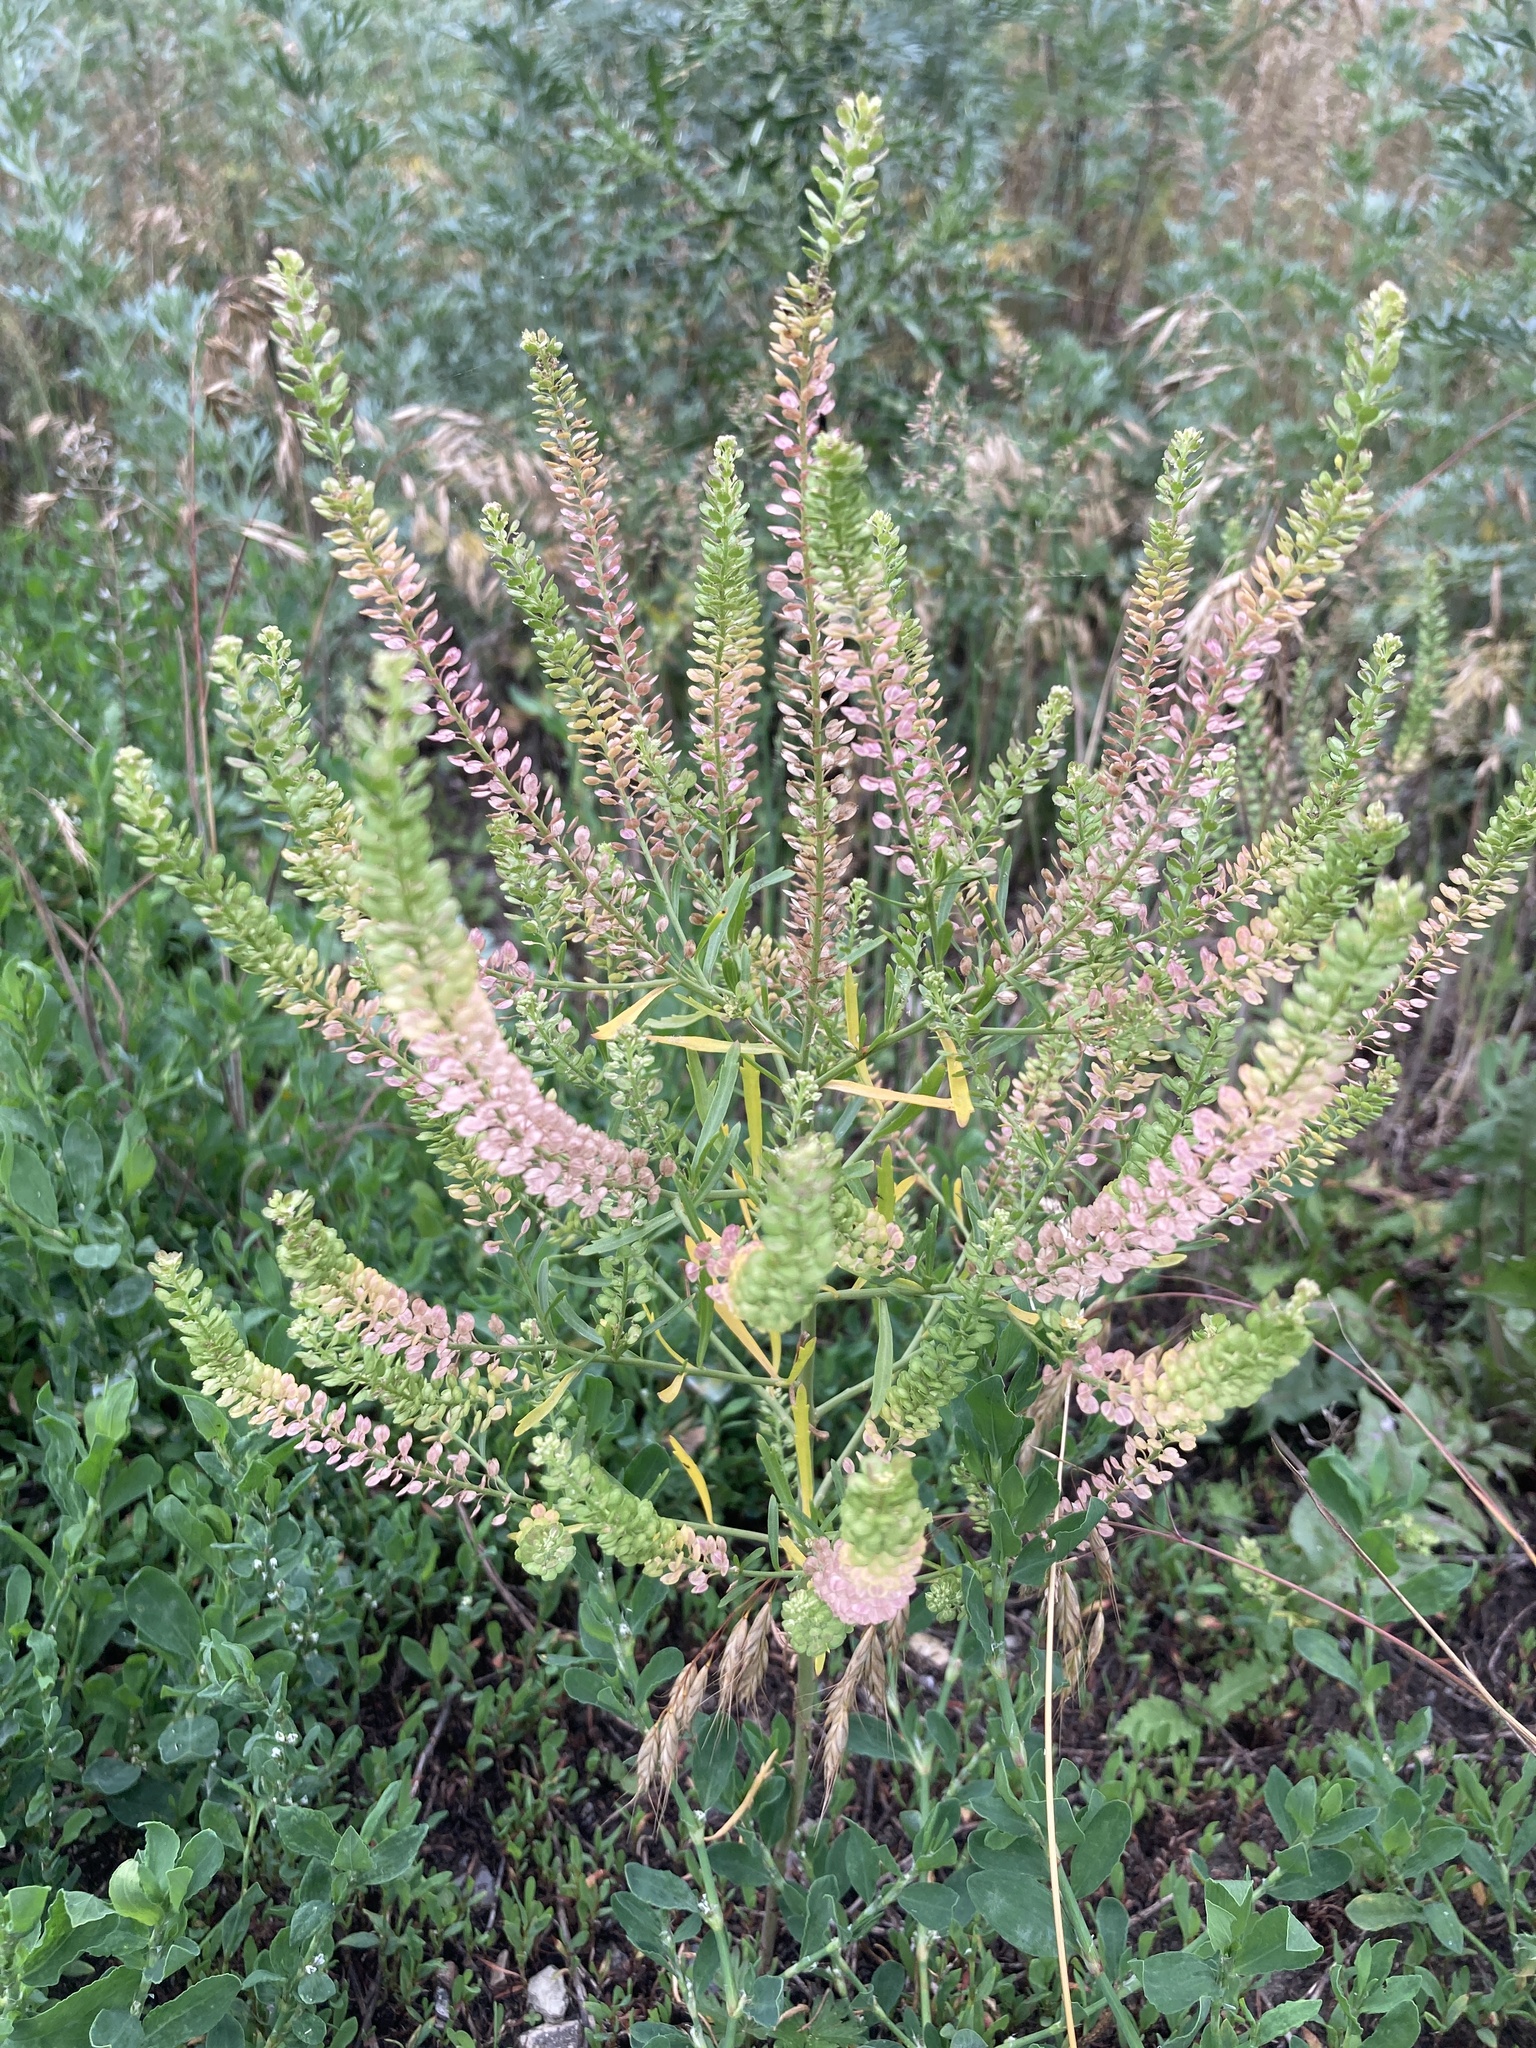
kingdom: Plantae
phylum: Tracheophyta
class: Magnoliopsida
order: Brassicales
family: Brassicaceae
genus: Lepidium
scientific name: Lepidium densiflorum
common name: Miner's pepperwort
